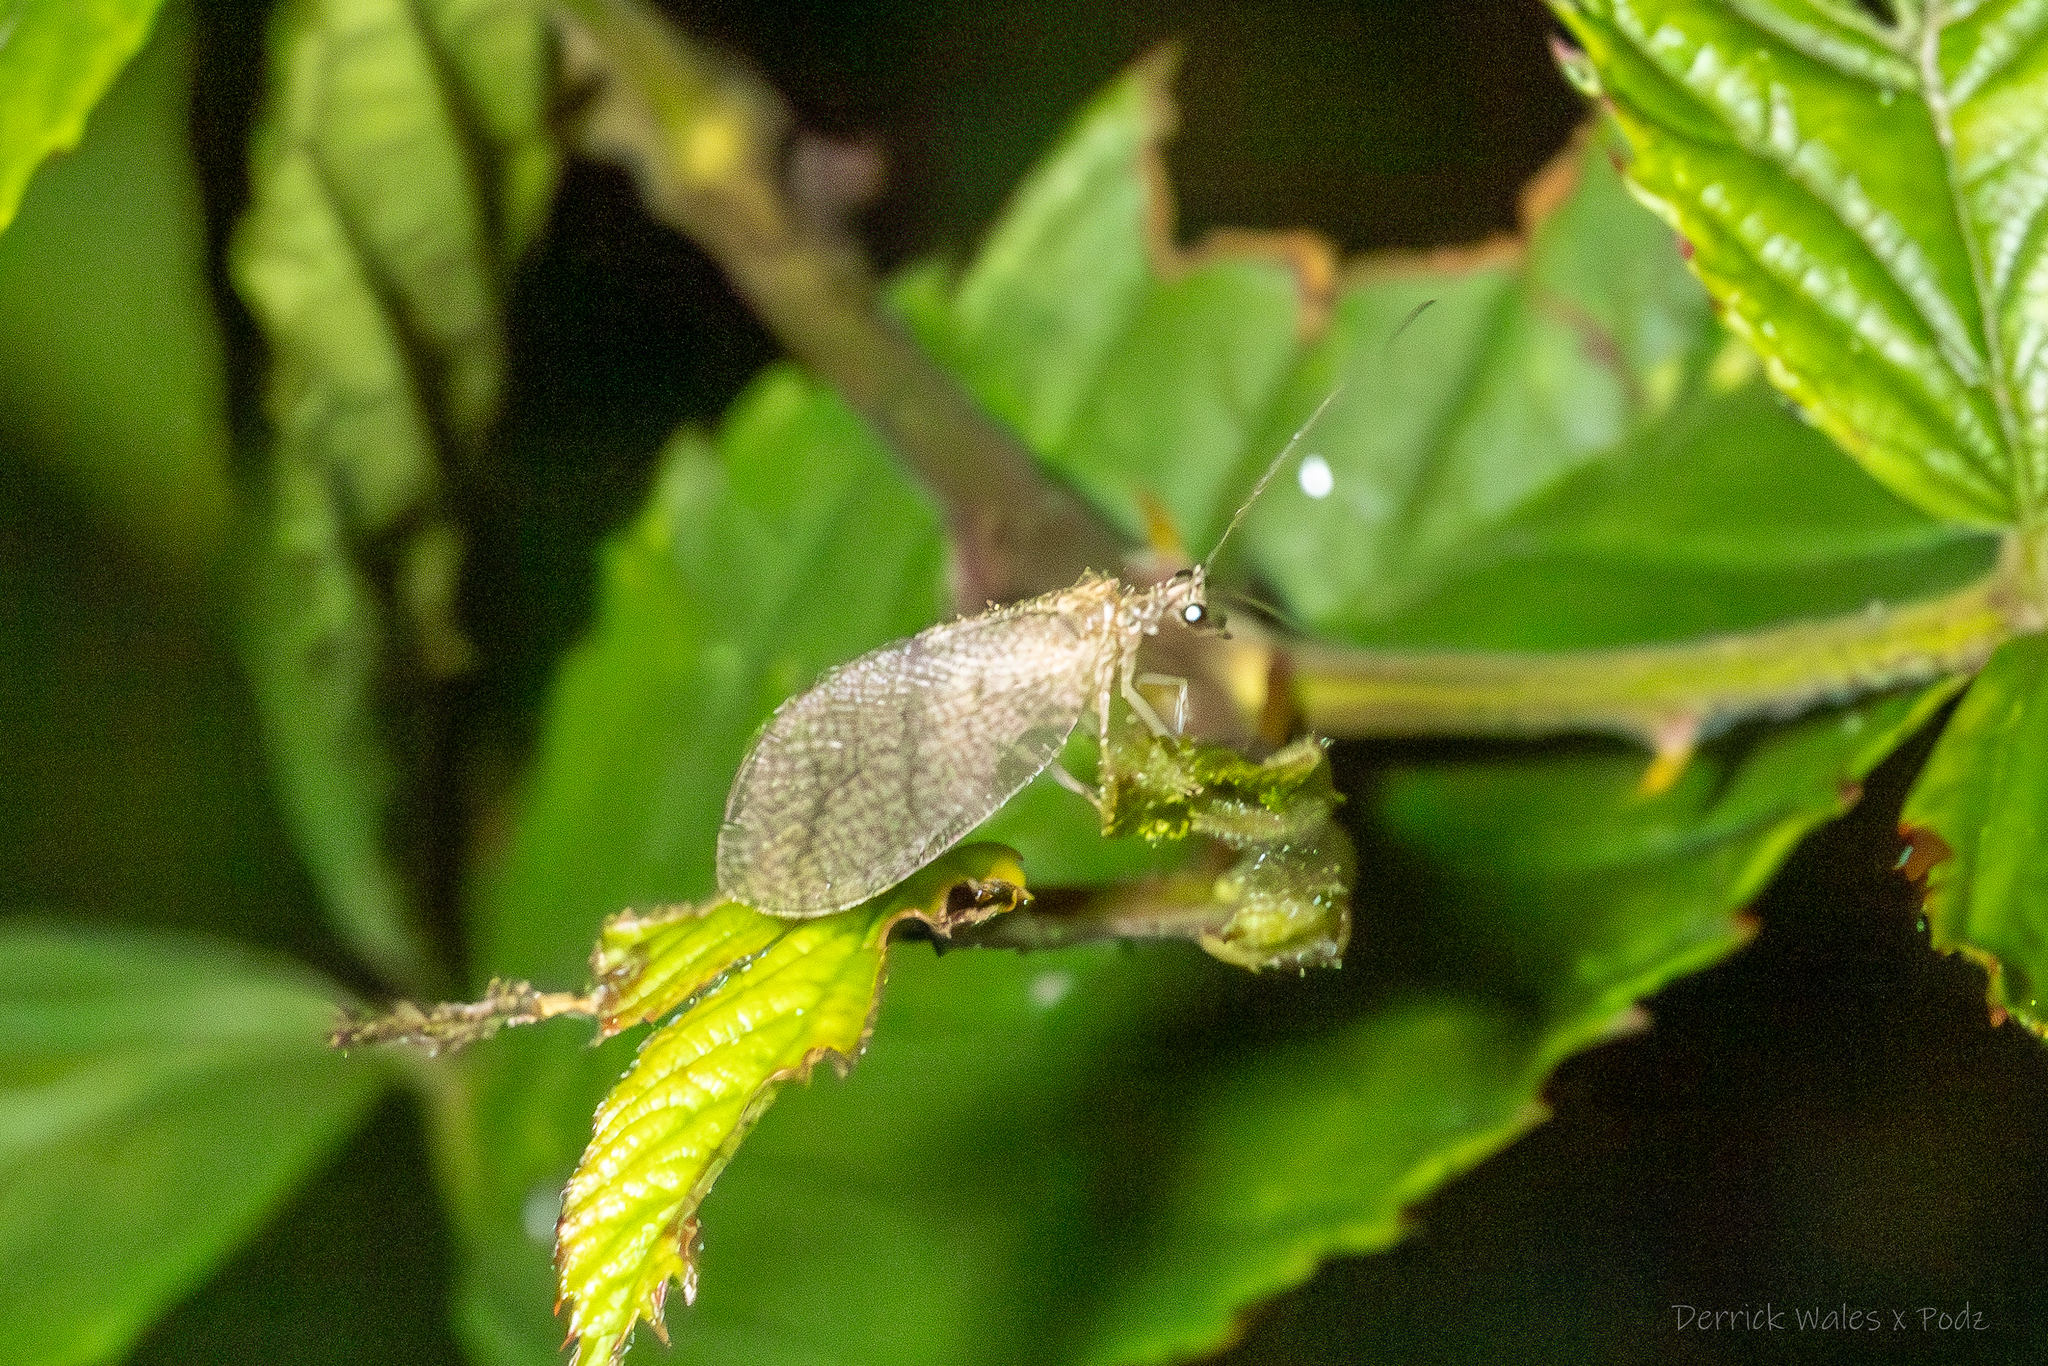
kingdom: Animalia
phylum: Arthropoda
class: Insecta
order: Neuroptera
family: Hemerobiidae
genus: Micromus
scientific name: Micromus posticus
